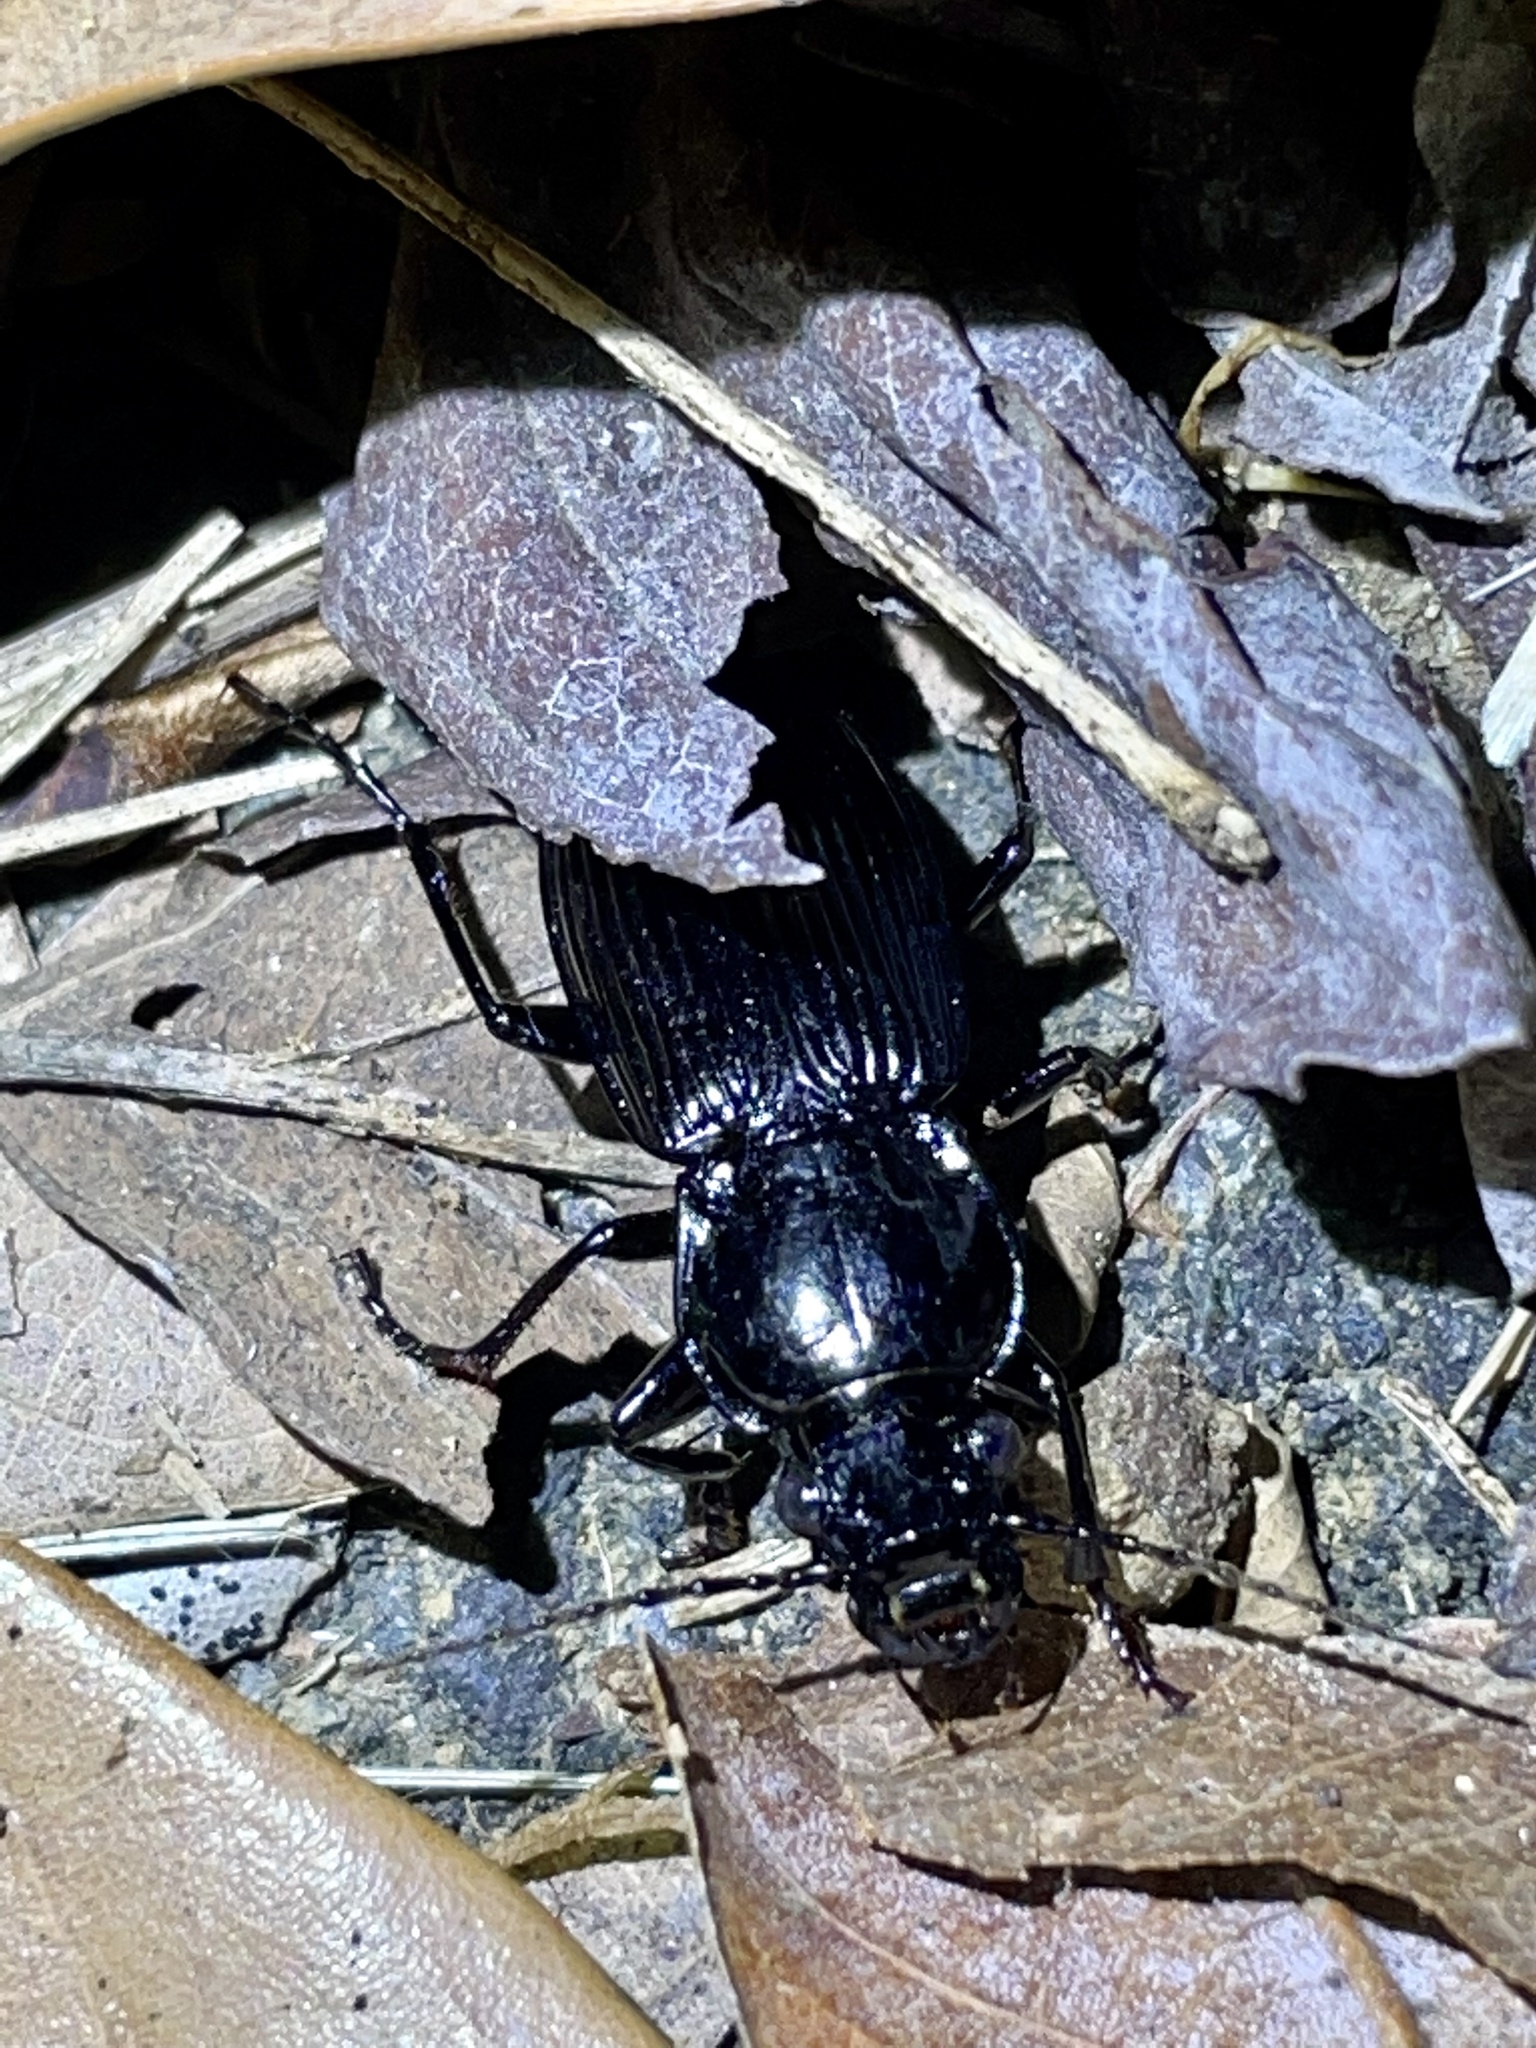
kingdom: Animalia
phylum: Arthropoda
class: Insecta
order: Coleoptera
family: Carabidae
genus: Lesticus
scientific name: Lesticus magnus
